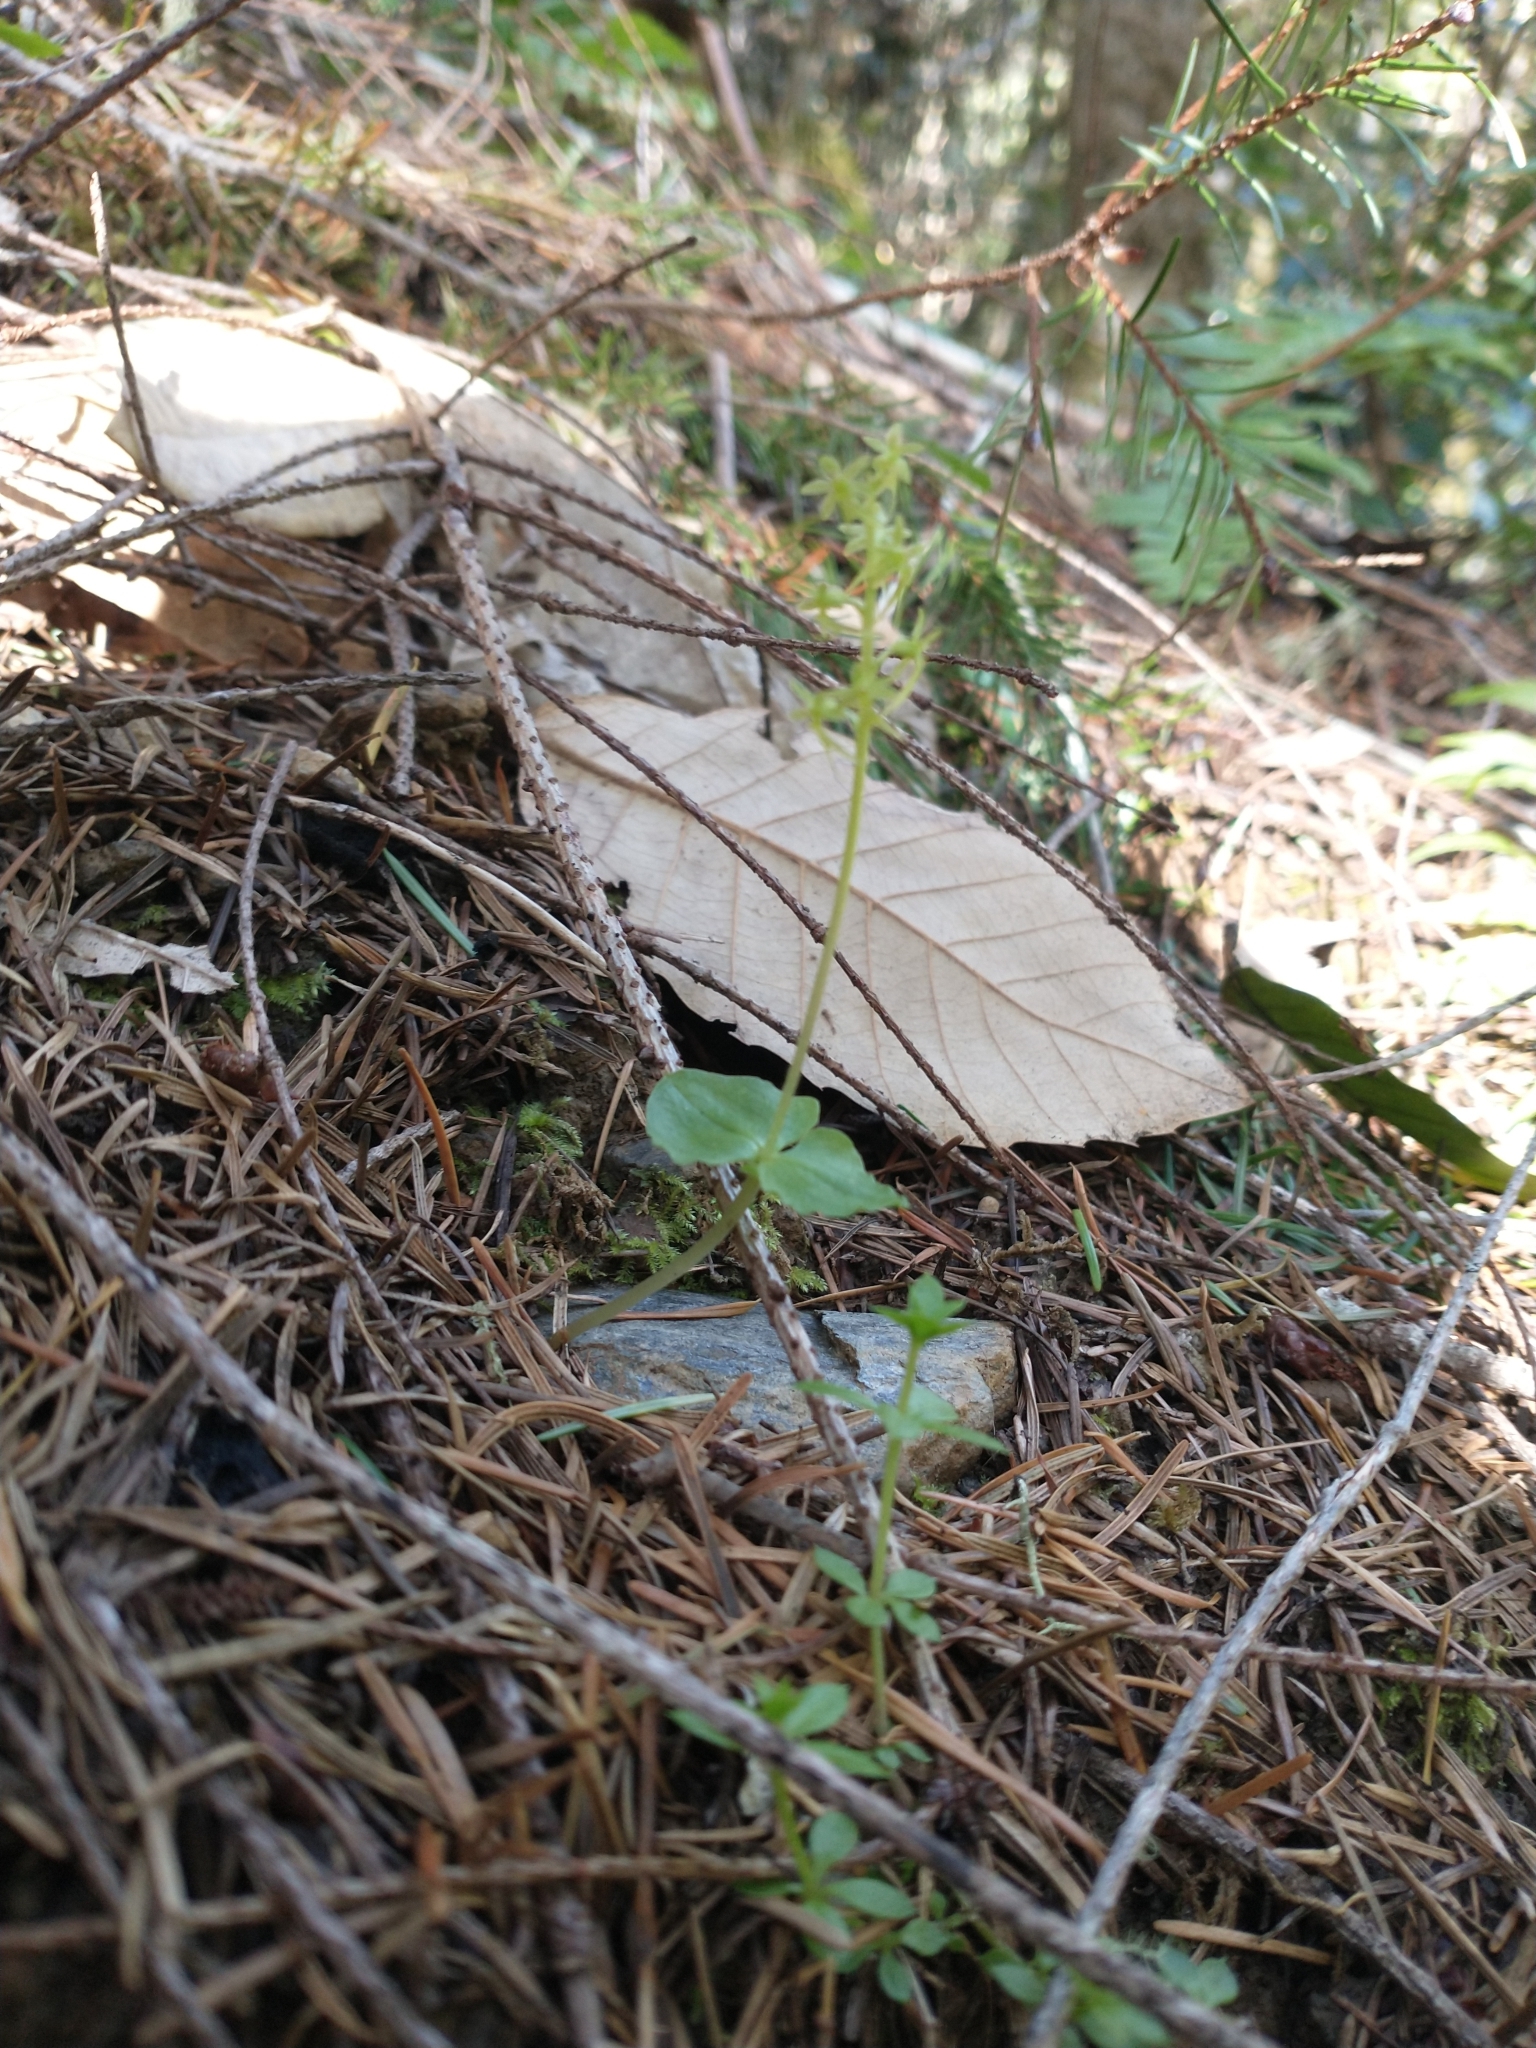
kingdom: Plantae
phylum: Tracheophyta
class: Liliopsida
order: Asparagales
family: Orchidaceae
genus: Neottia
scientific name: Neottia cordata
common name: Lesser twayblade
